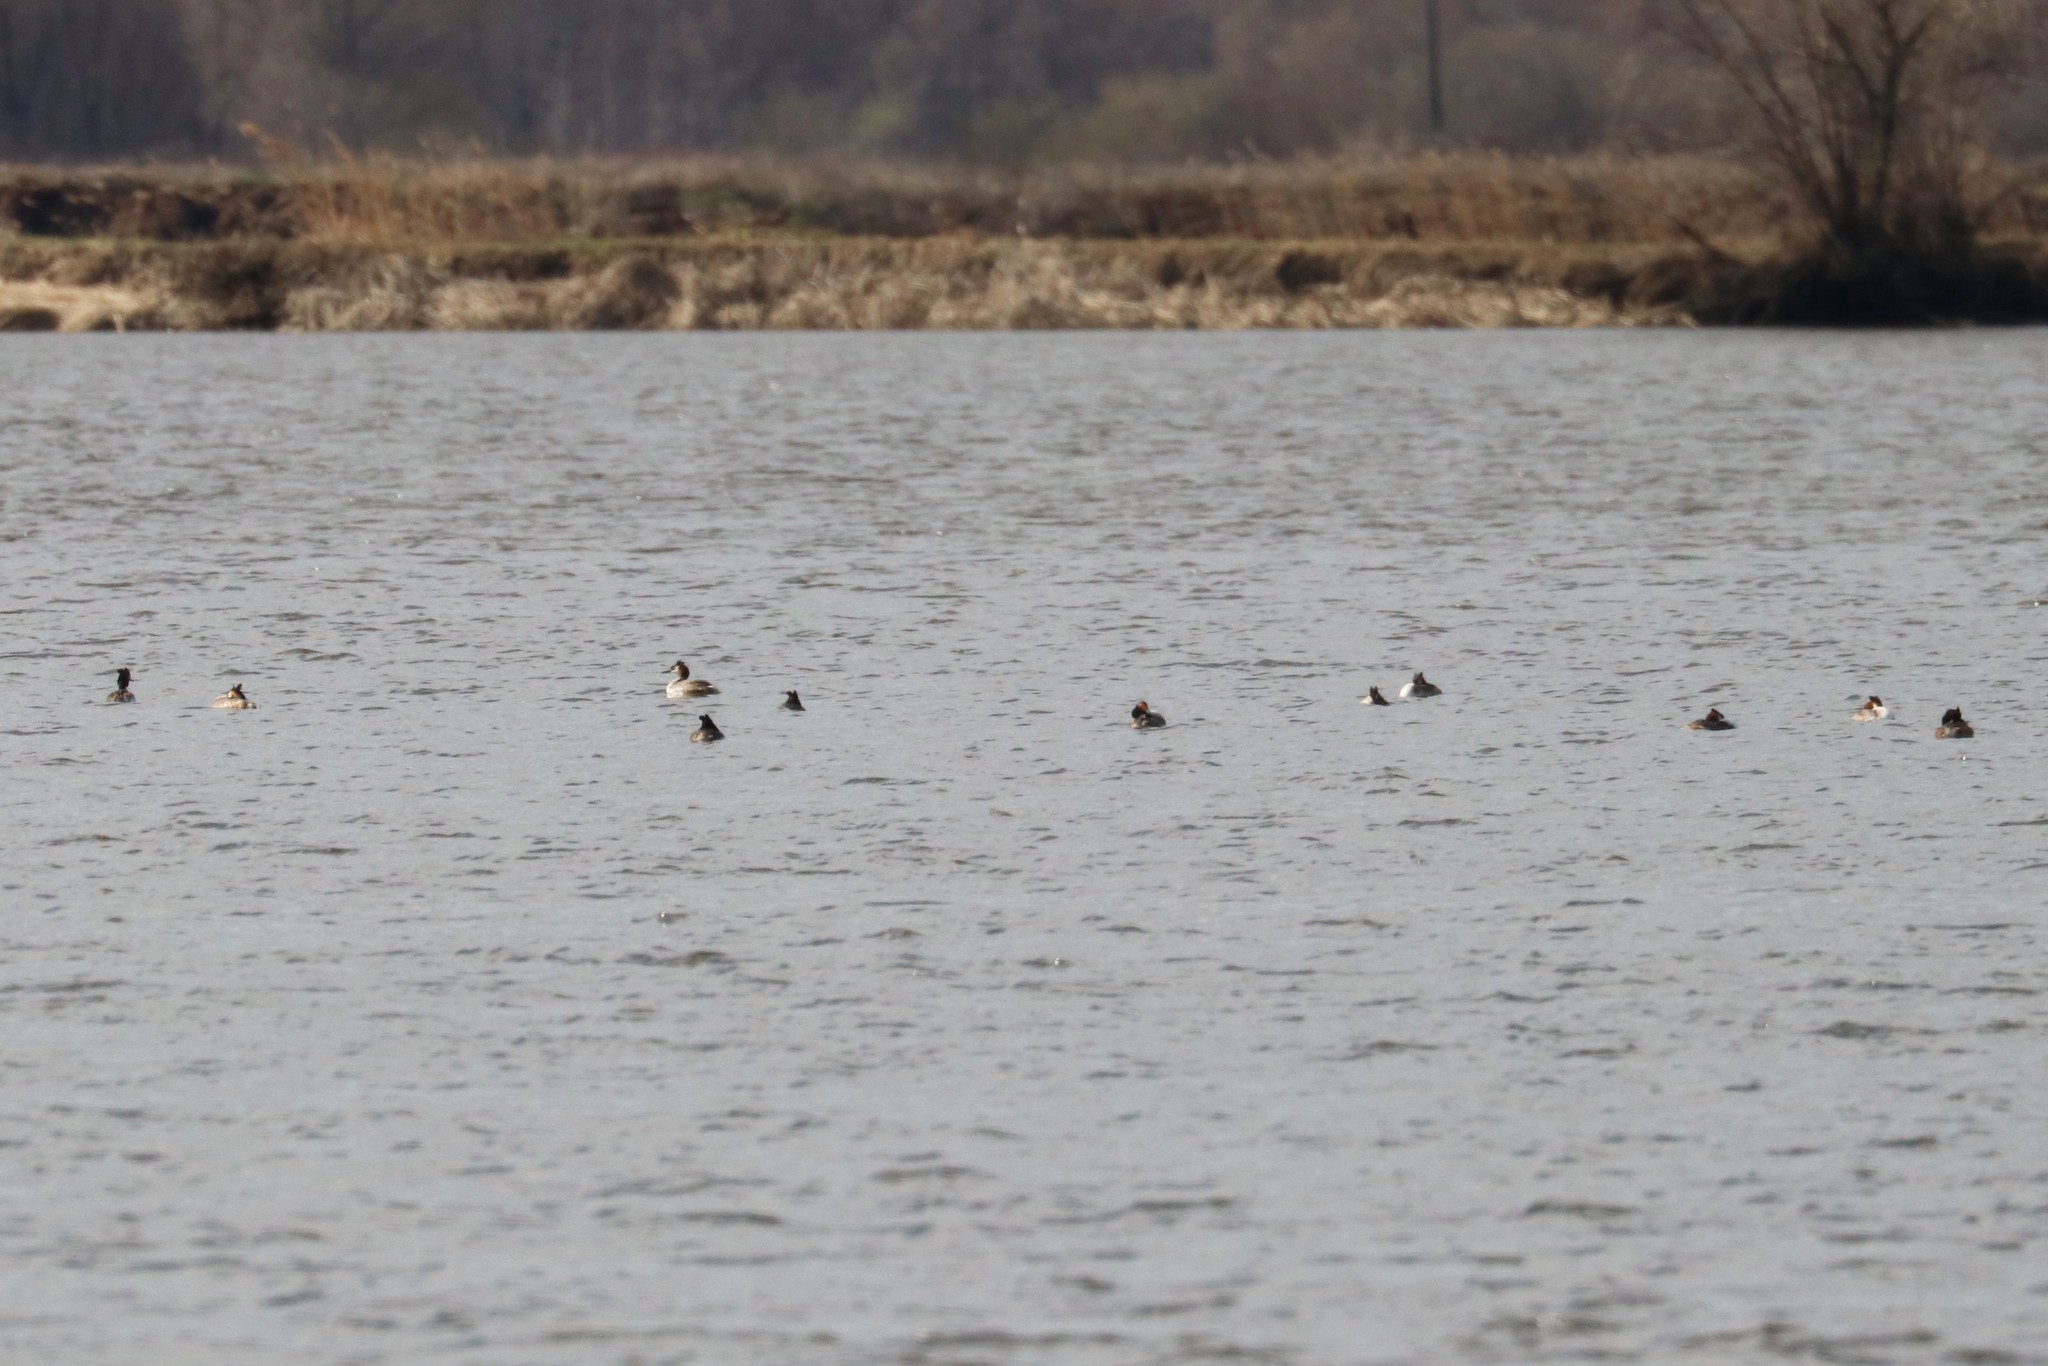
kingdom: Animalia
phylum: Chordata
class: Aves
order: Podicipediformes
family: Podicipedidae
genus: Podiceps
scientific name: Podiceps cristatus
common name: Great crested grebe
